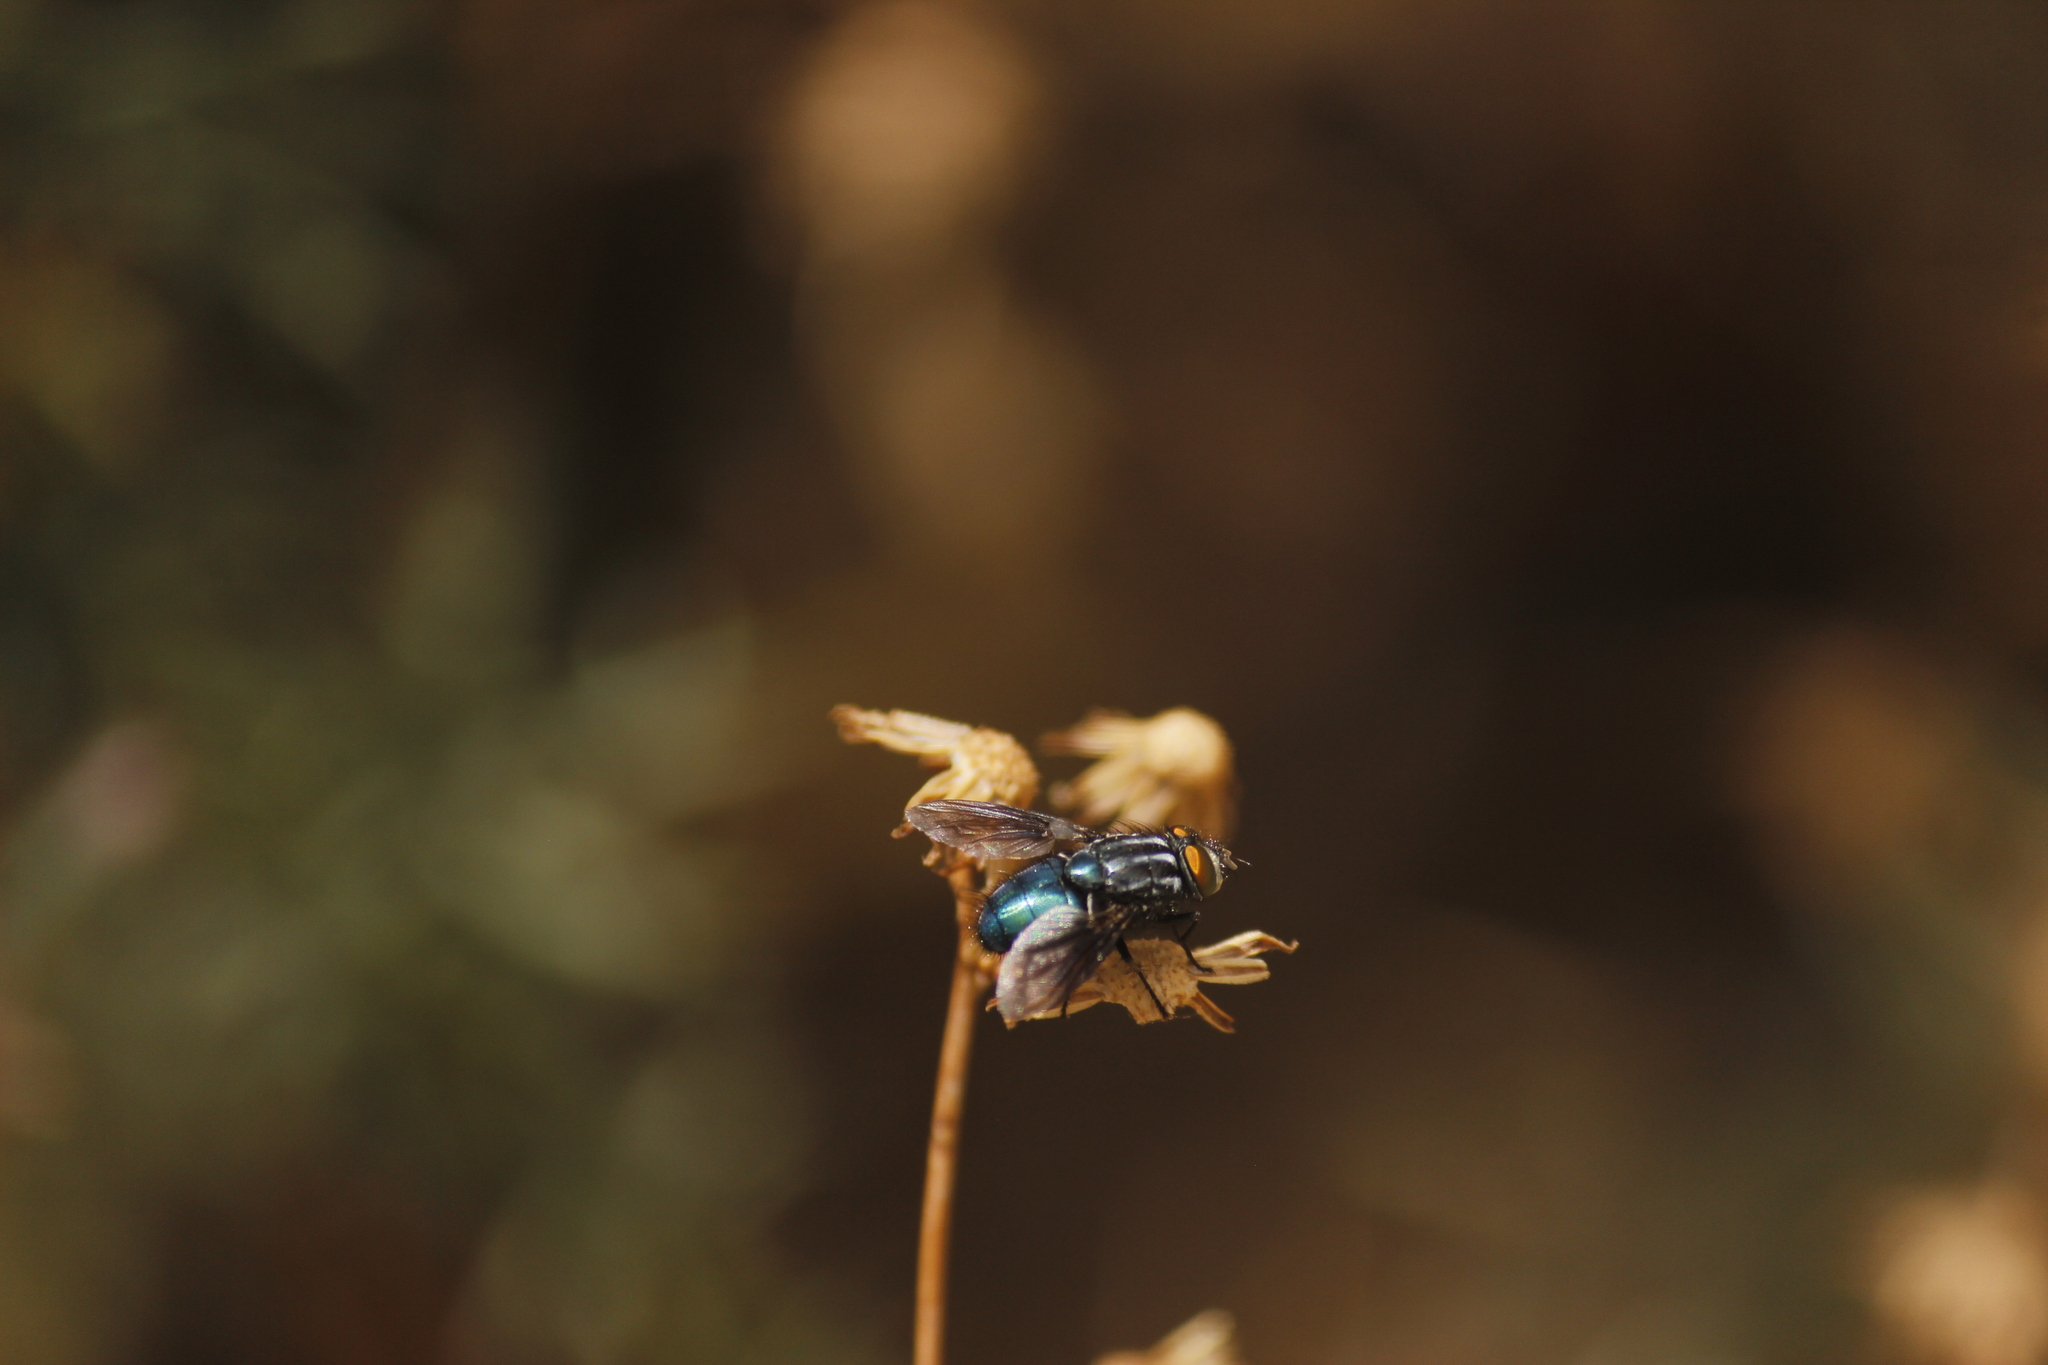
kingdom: Animalia
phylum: Arthropoda
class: Insecta
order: Diptera
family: Calliphoridae
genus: Sarconesia
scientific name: Sarconesia magellanica
